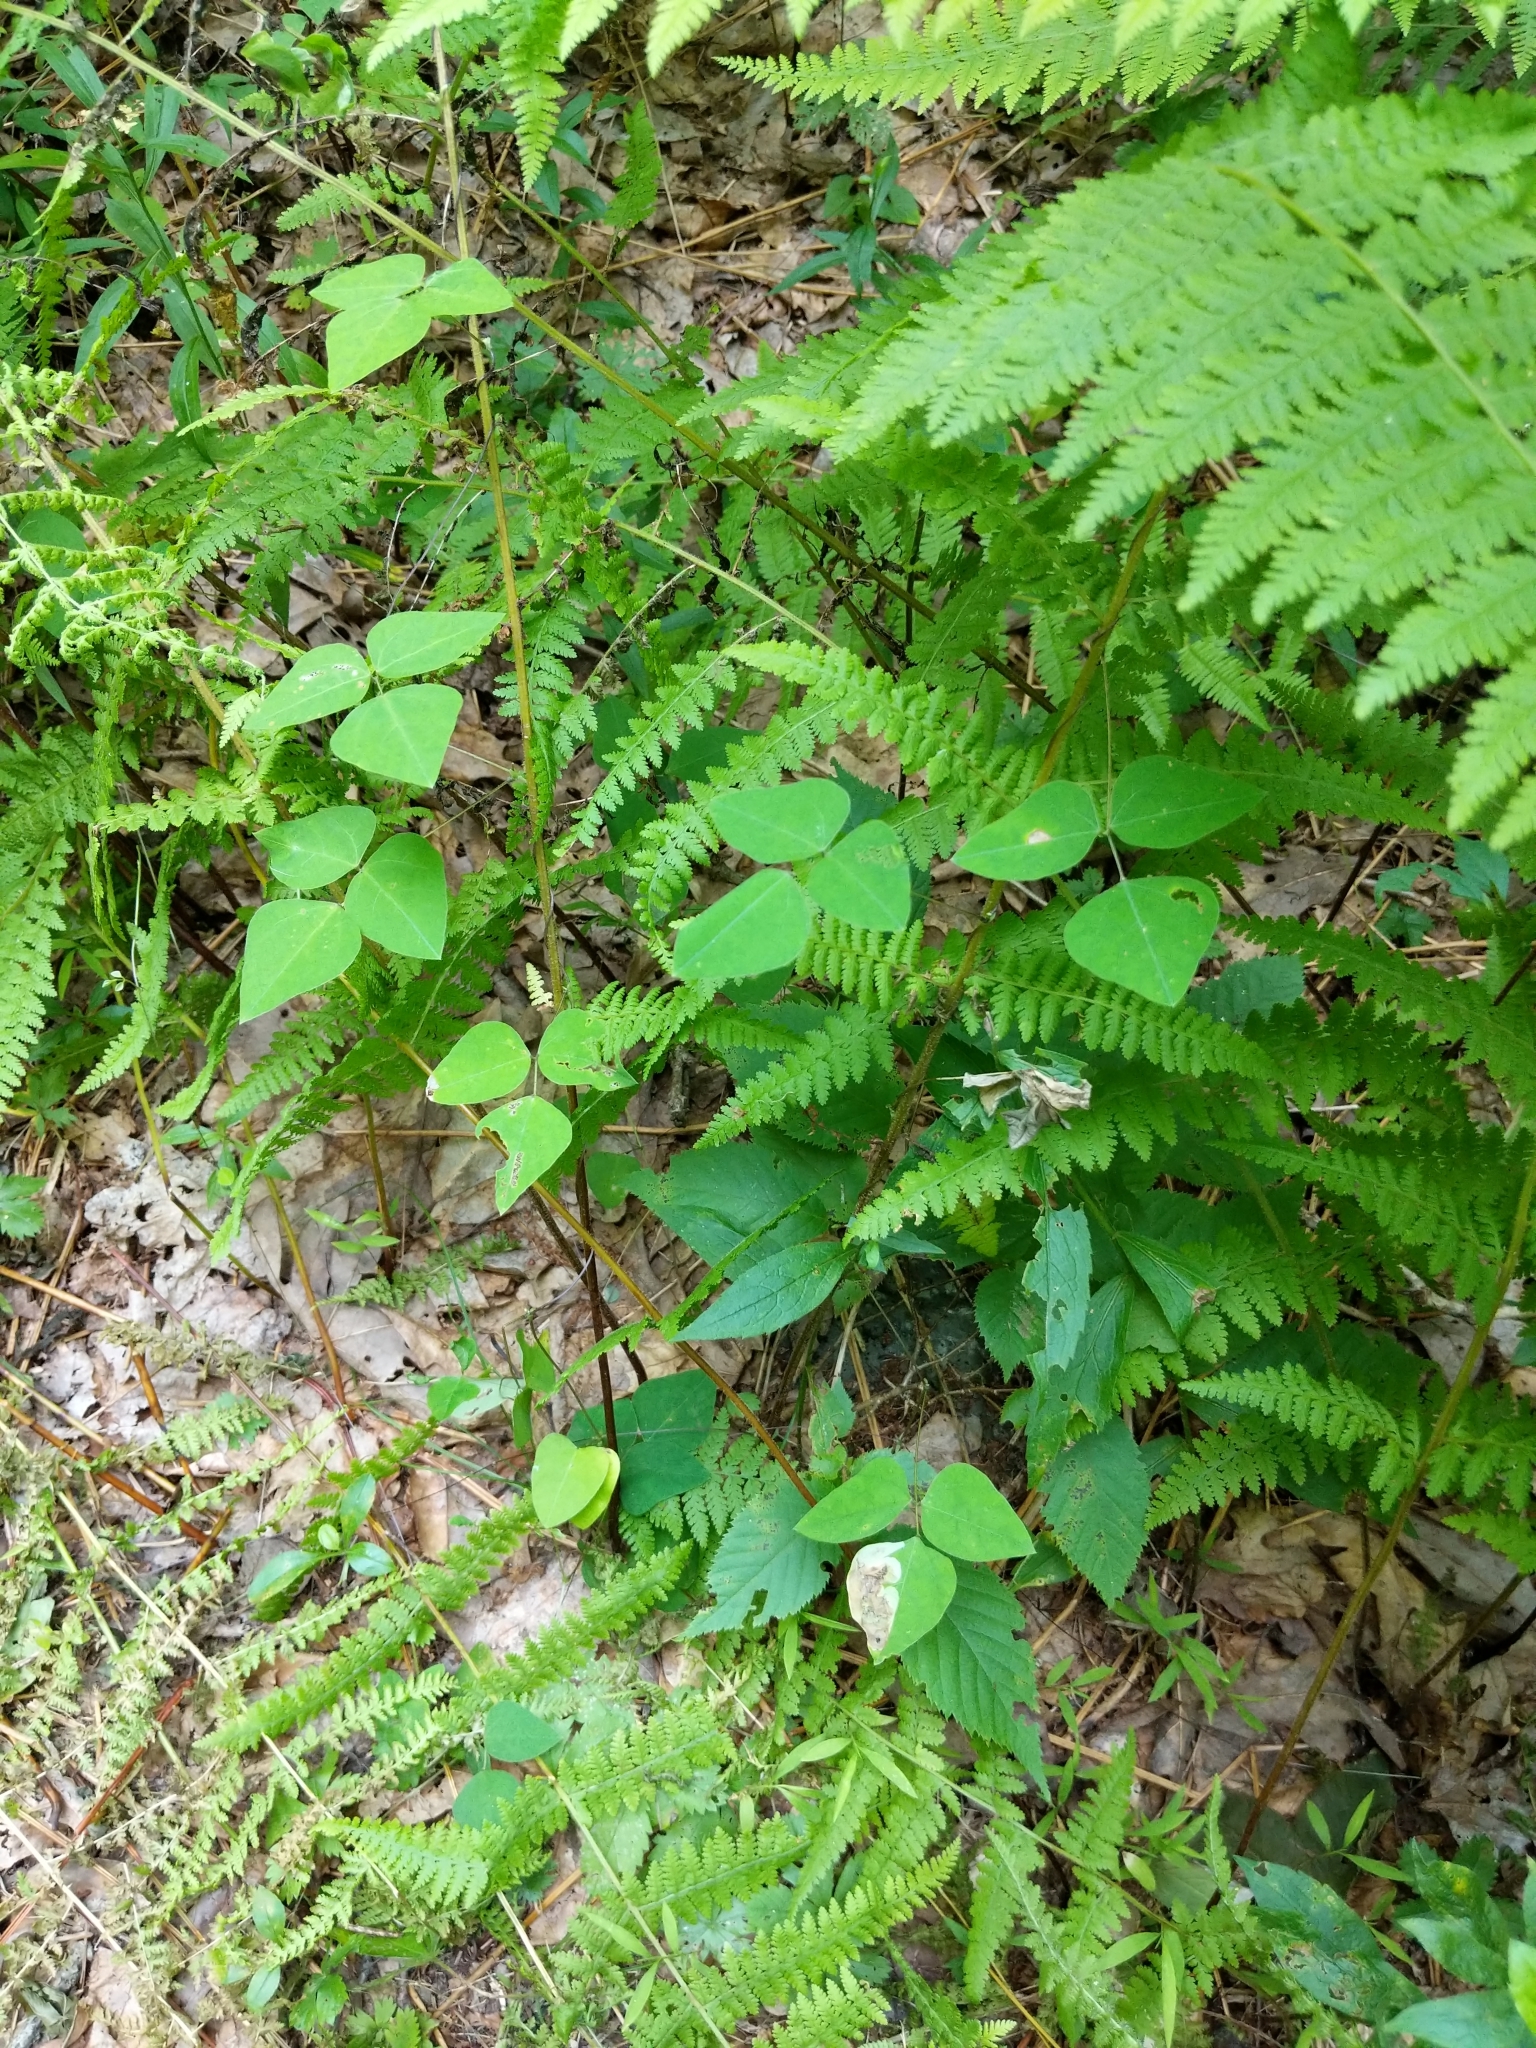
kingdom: Plantae
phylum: Tracheophyta
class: Magnoliopsida
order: Fabales
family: Fabaceae
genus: Amphicarpaea
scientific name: Amphicarpaea bracteata
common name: American hog peanut
